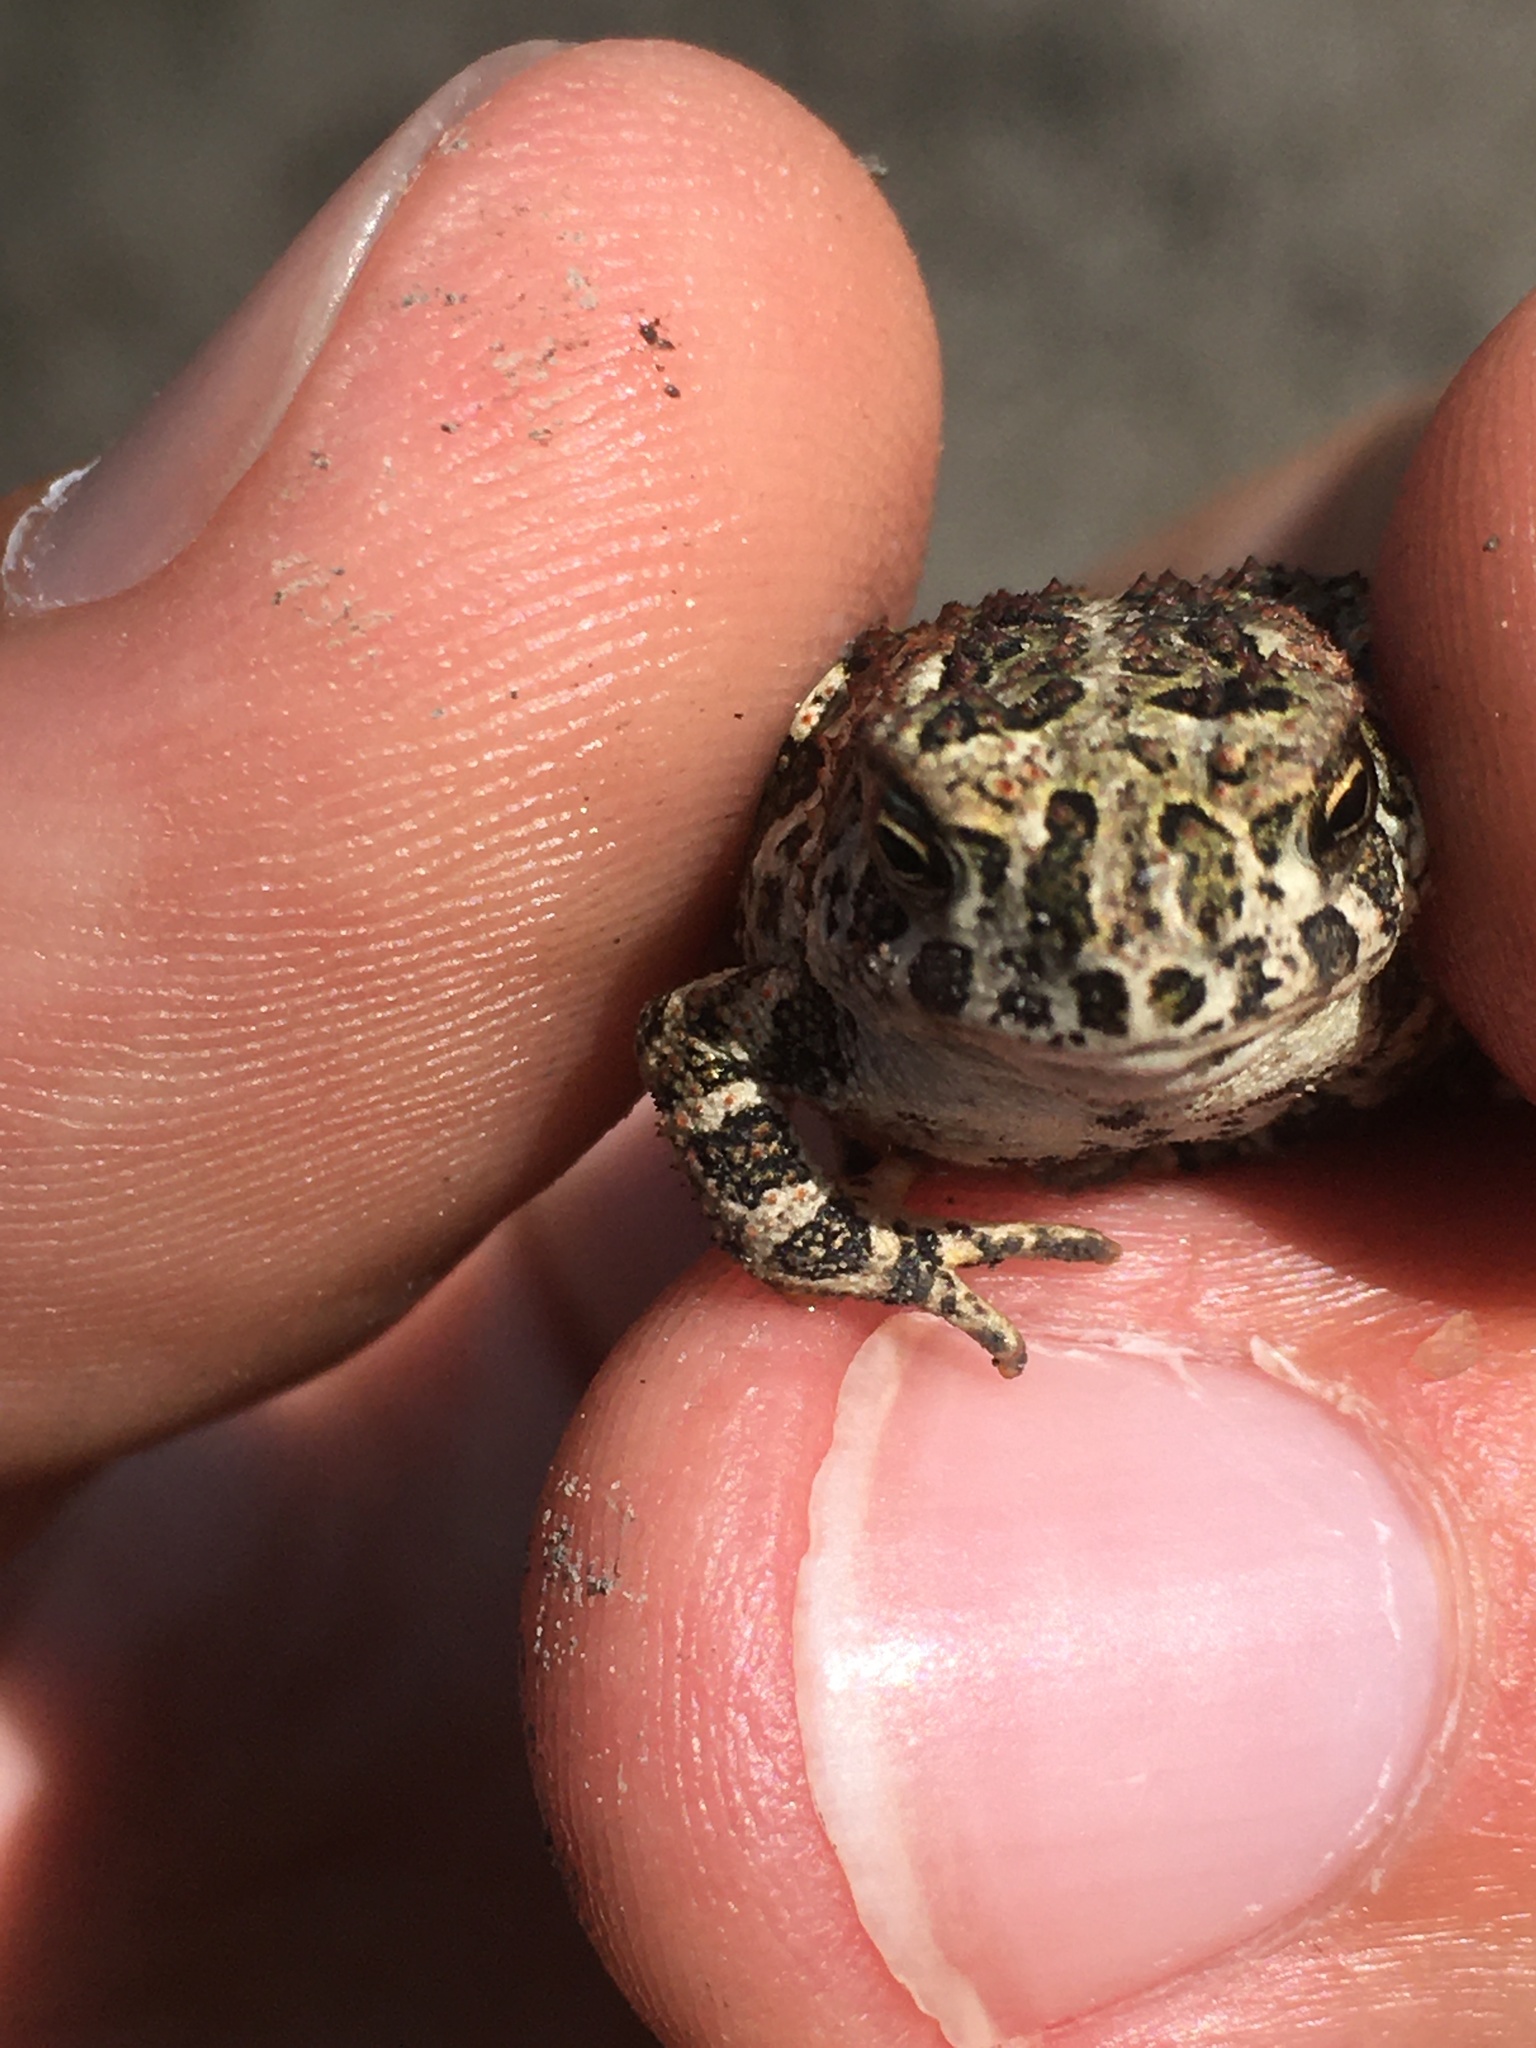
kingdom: Animalia
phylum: Chordata
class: Amphibia
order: Anura
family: Bufonidae
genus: Anaxyrus
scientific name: Anaxyrus hemiophrys
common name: Canadian toad
